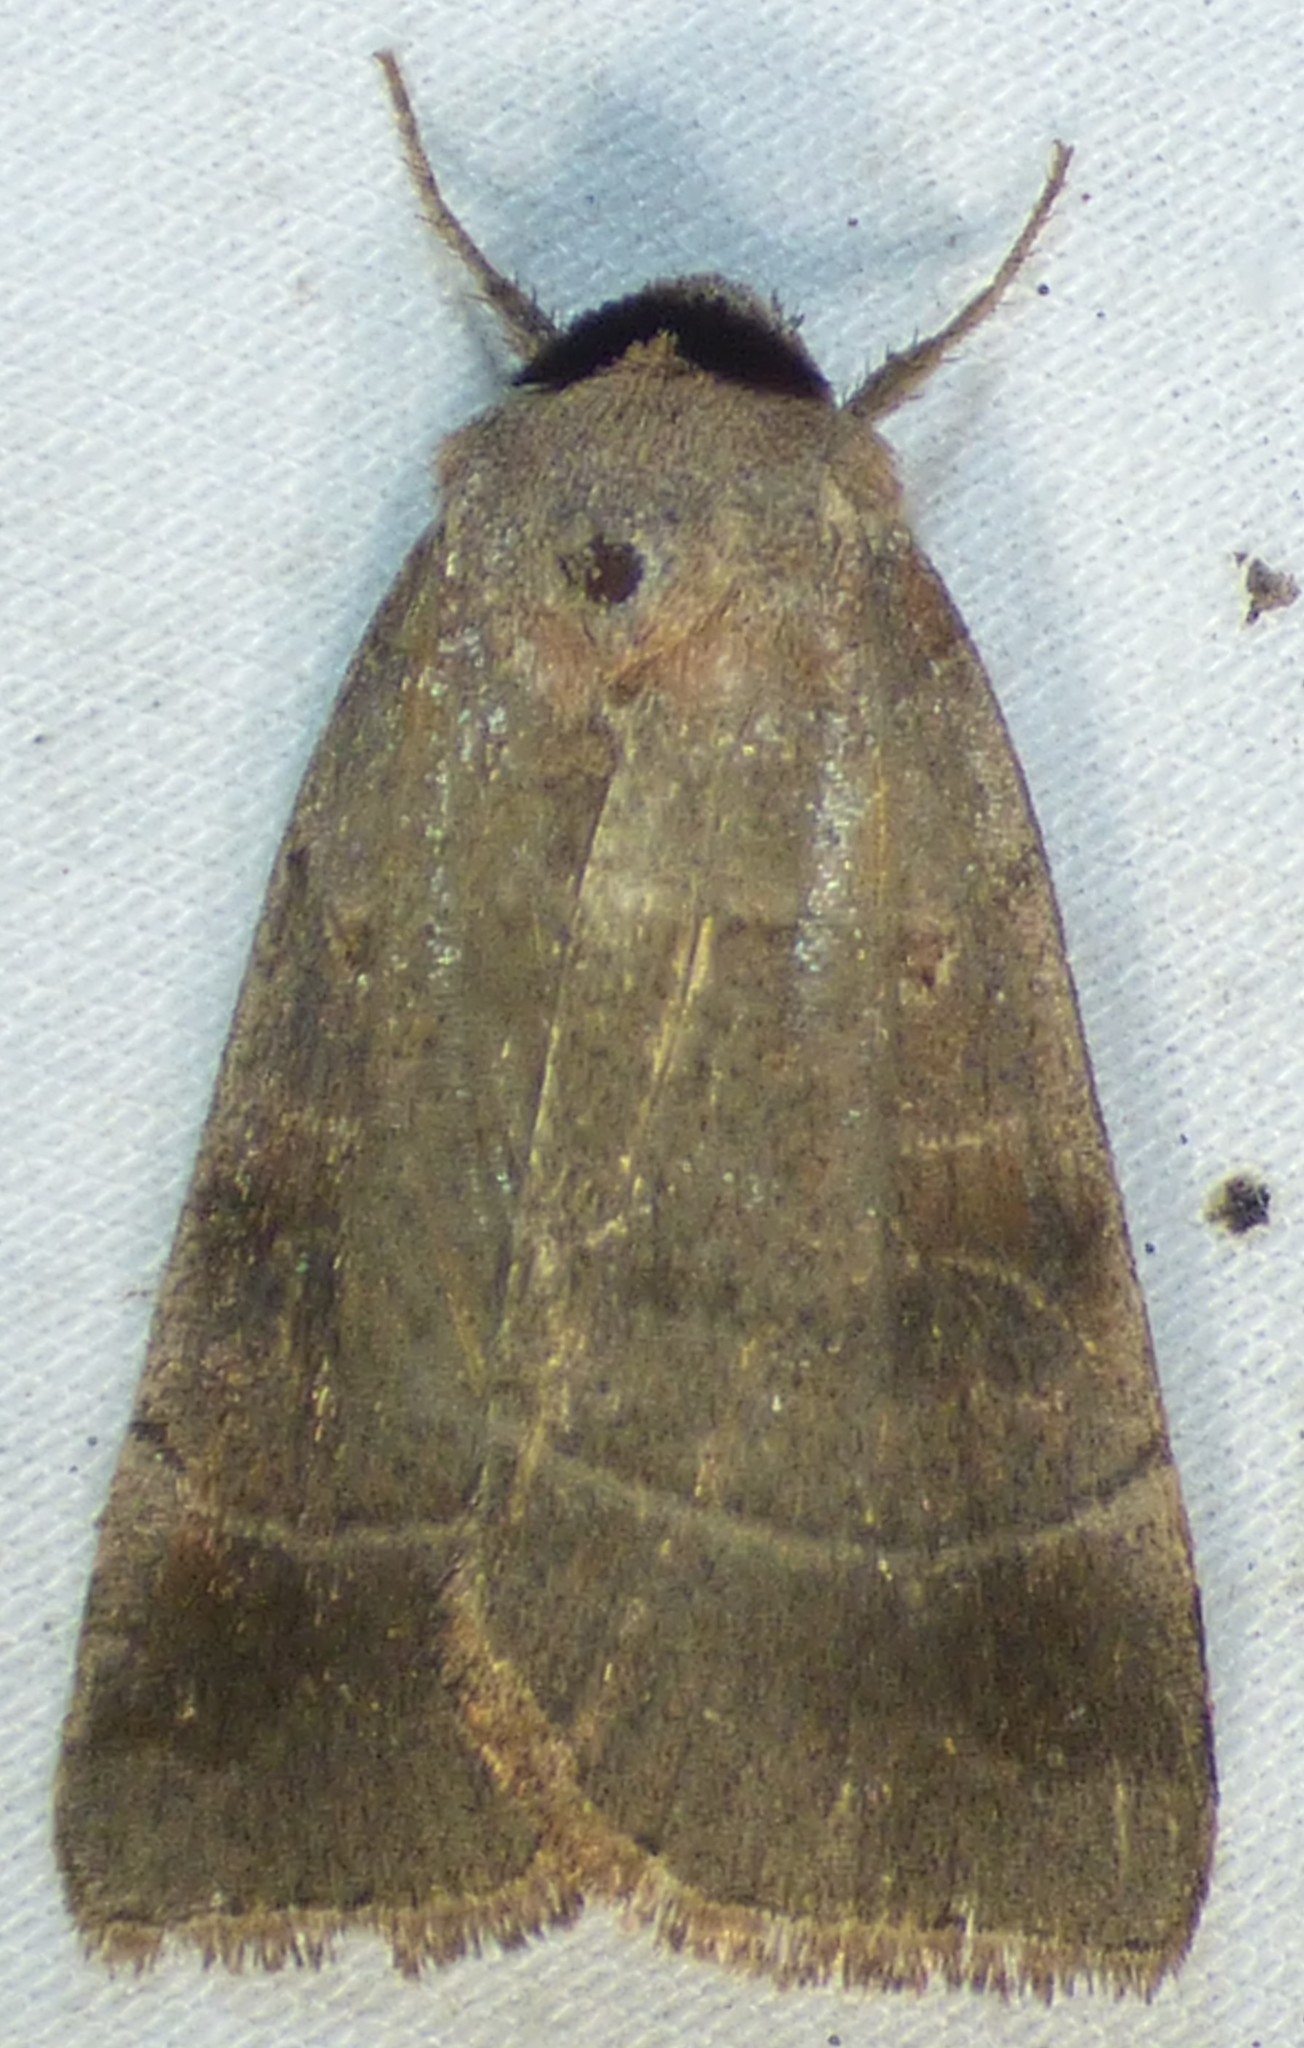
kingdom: Animalia
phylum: Arthropoda
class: Insecta
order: Lepidoptera
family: Noctuidae
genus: Agnorisma
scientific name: Agnorisma badinodis
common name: Pale-banded dart
